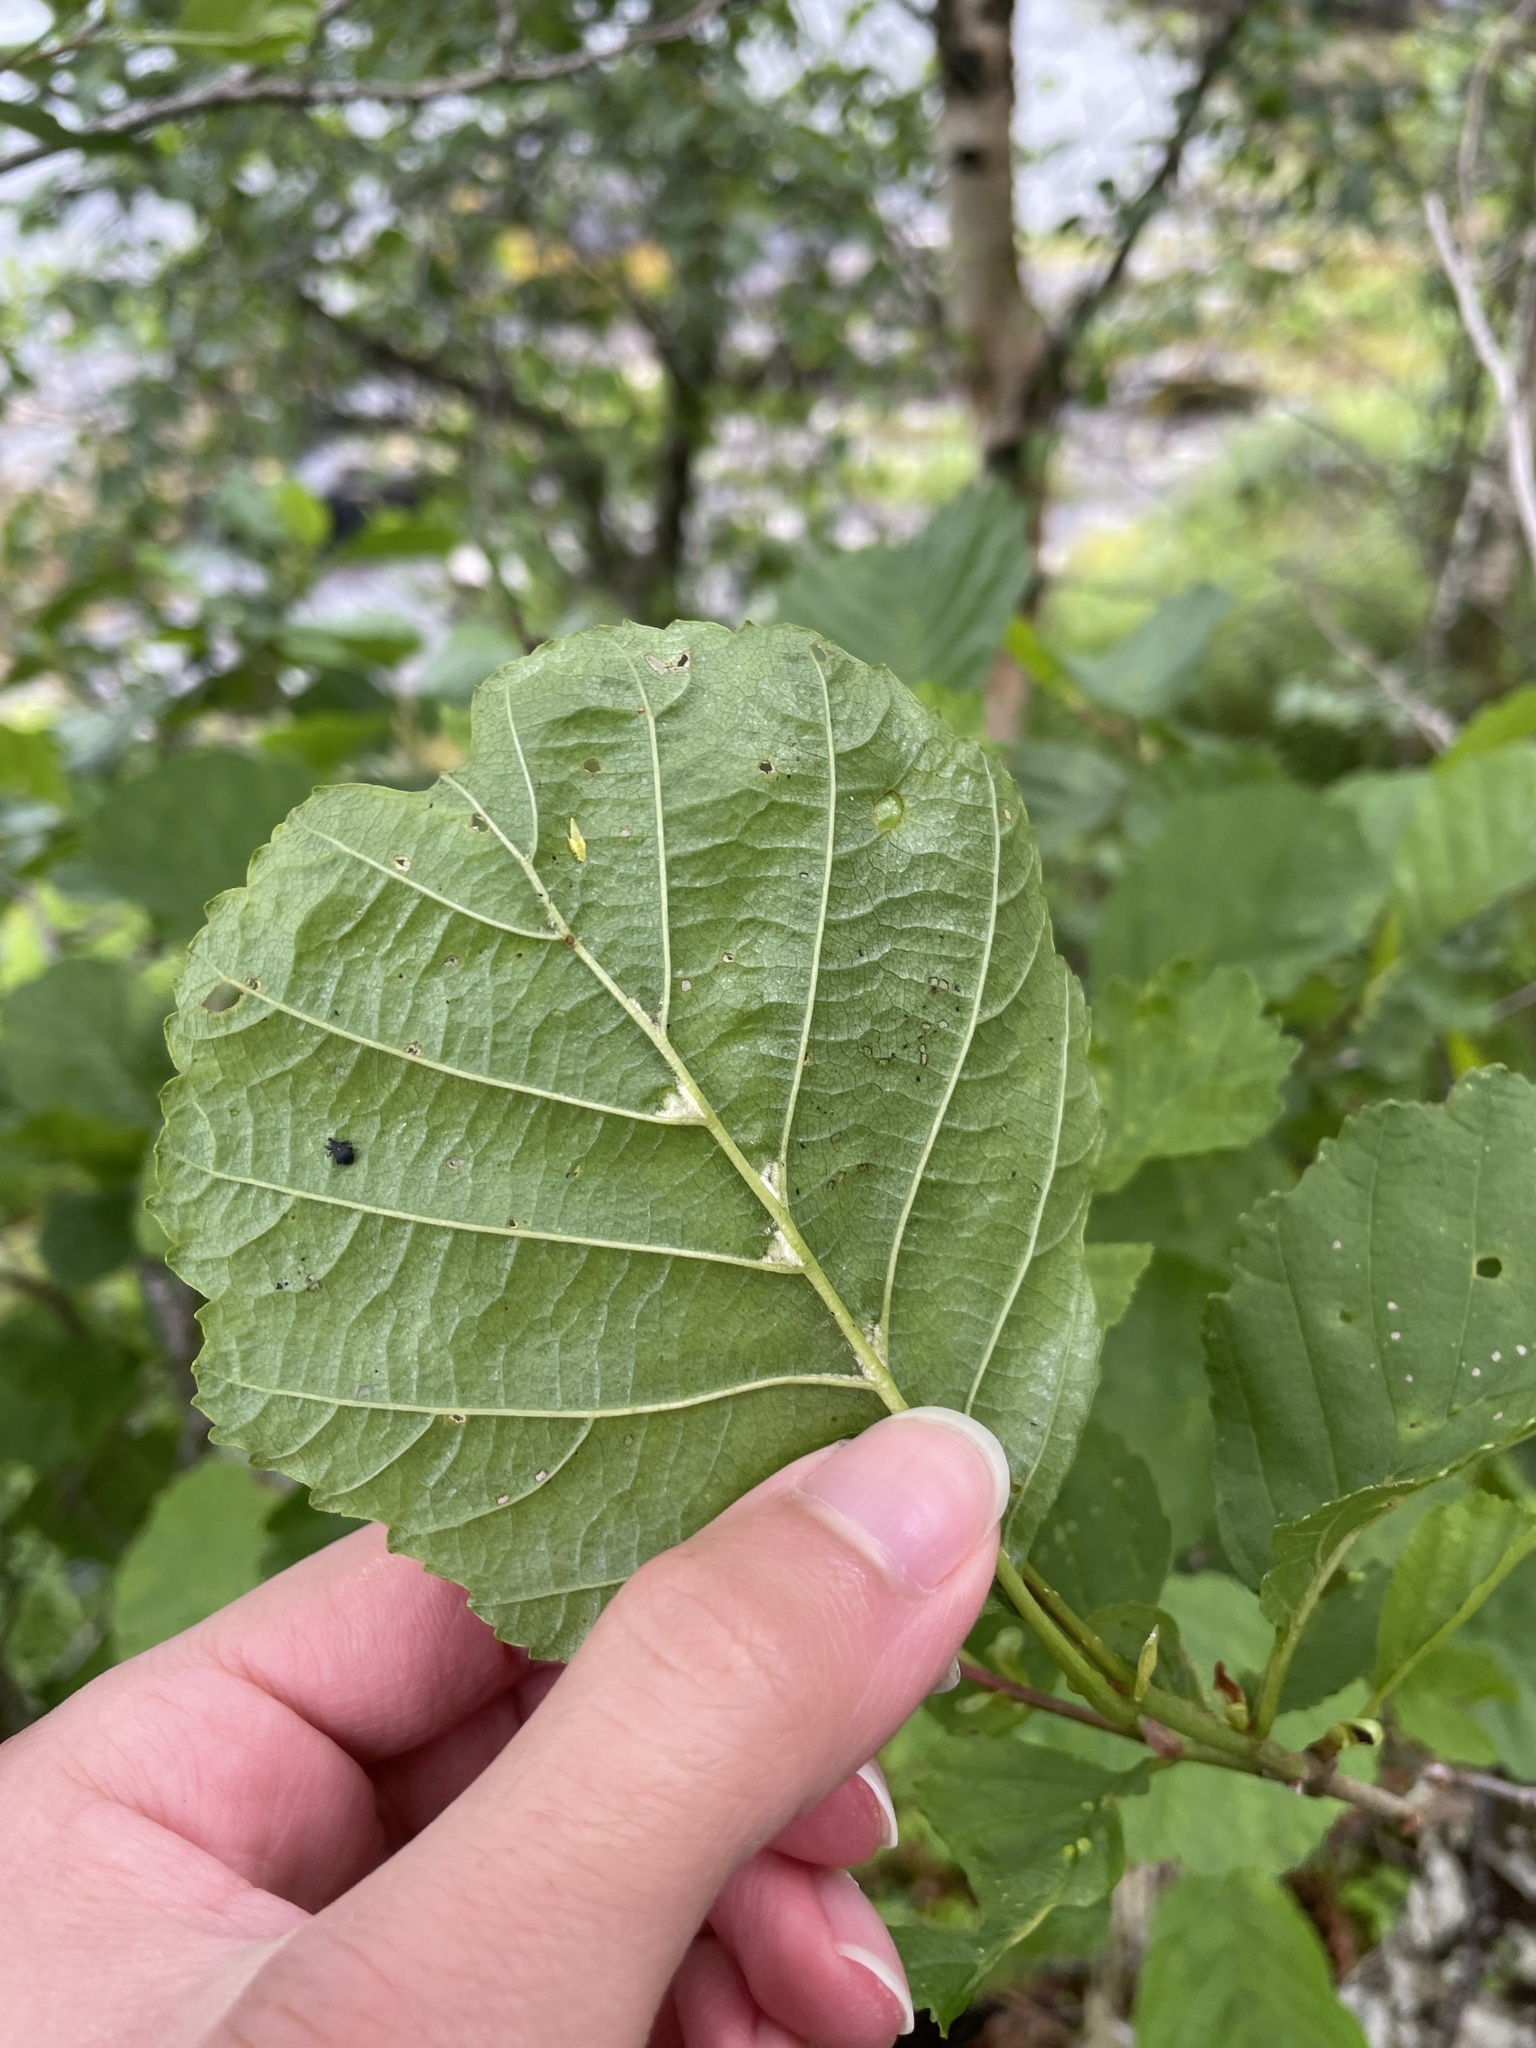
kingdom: Plantae
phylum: Tracheophyta
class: Magnoliopsida
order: Fagales
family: Betulaceae
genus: Alnus
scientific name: Alnus glutinosa
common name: Black alder
